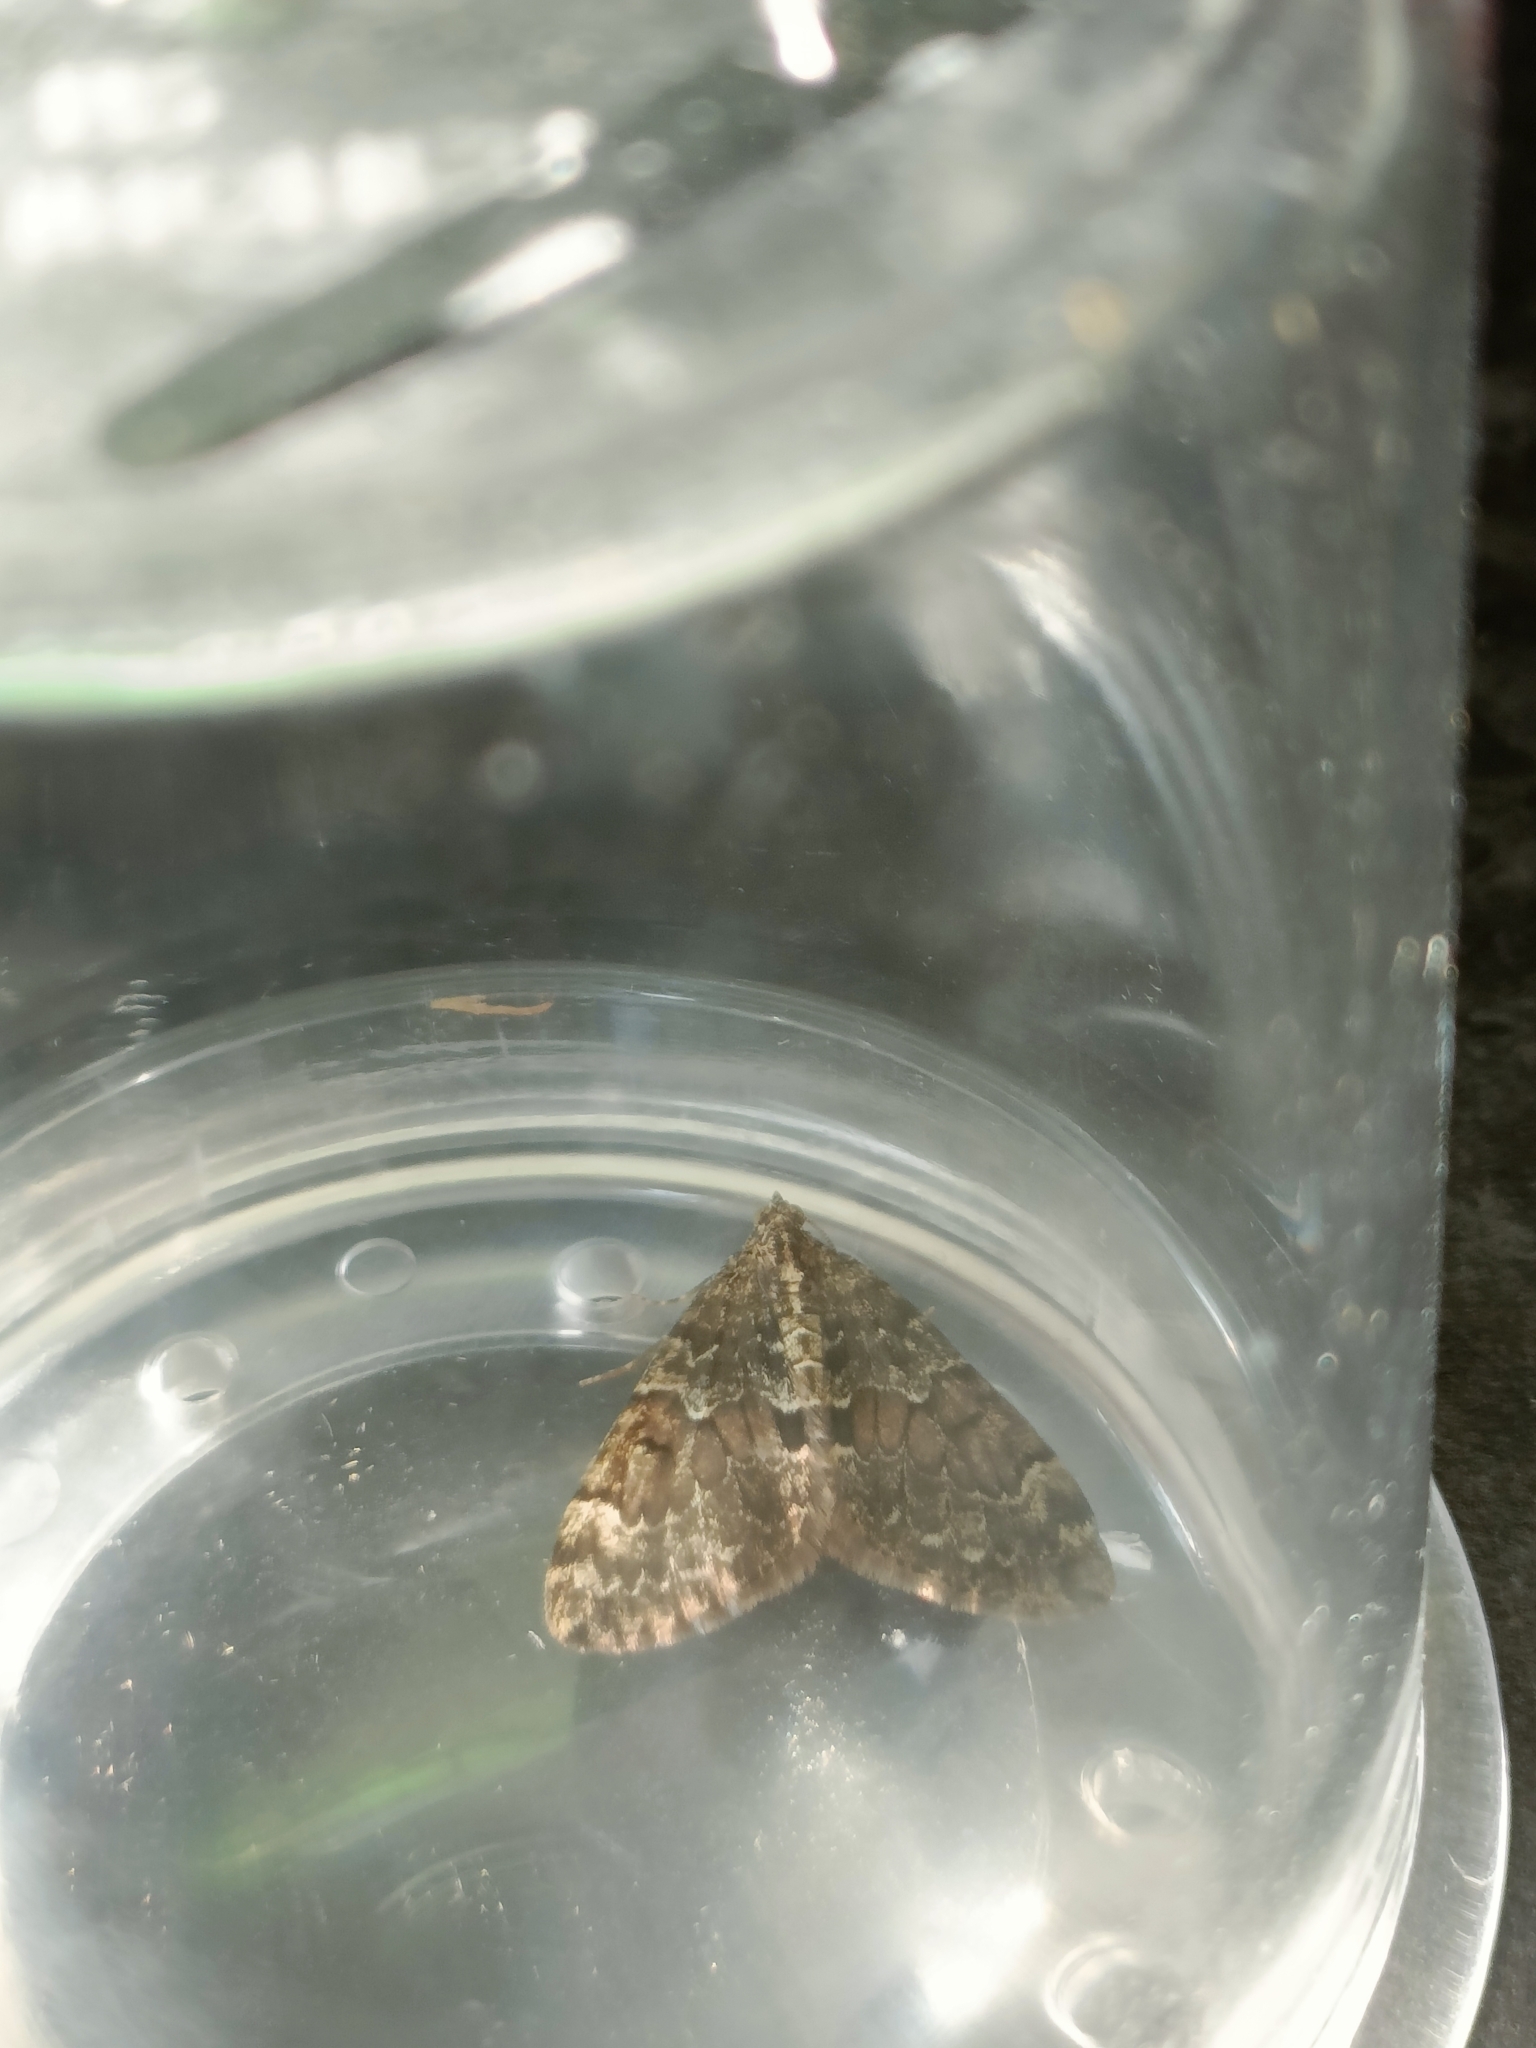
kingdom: Animalia
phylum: Arthropoda
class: Insecta
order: Lepidoptera
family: Geometridae
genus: Thera
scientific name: Thera britannica
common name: Spruce carpet
